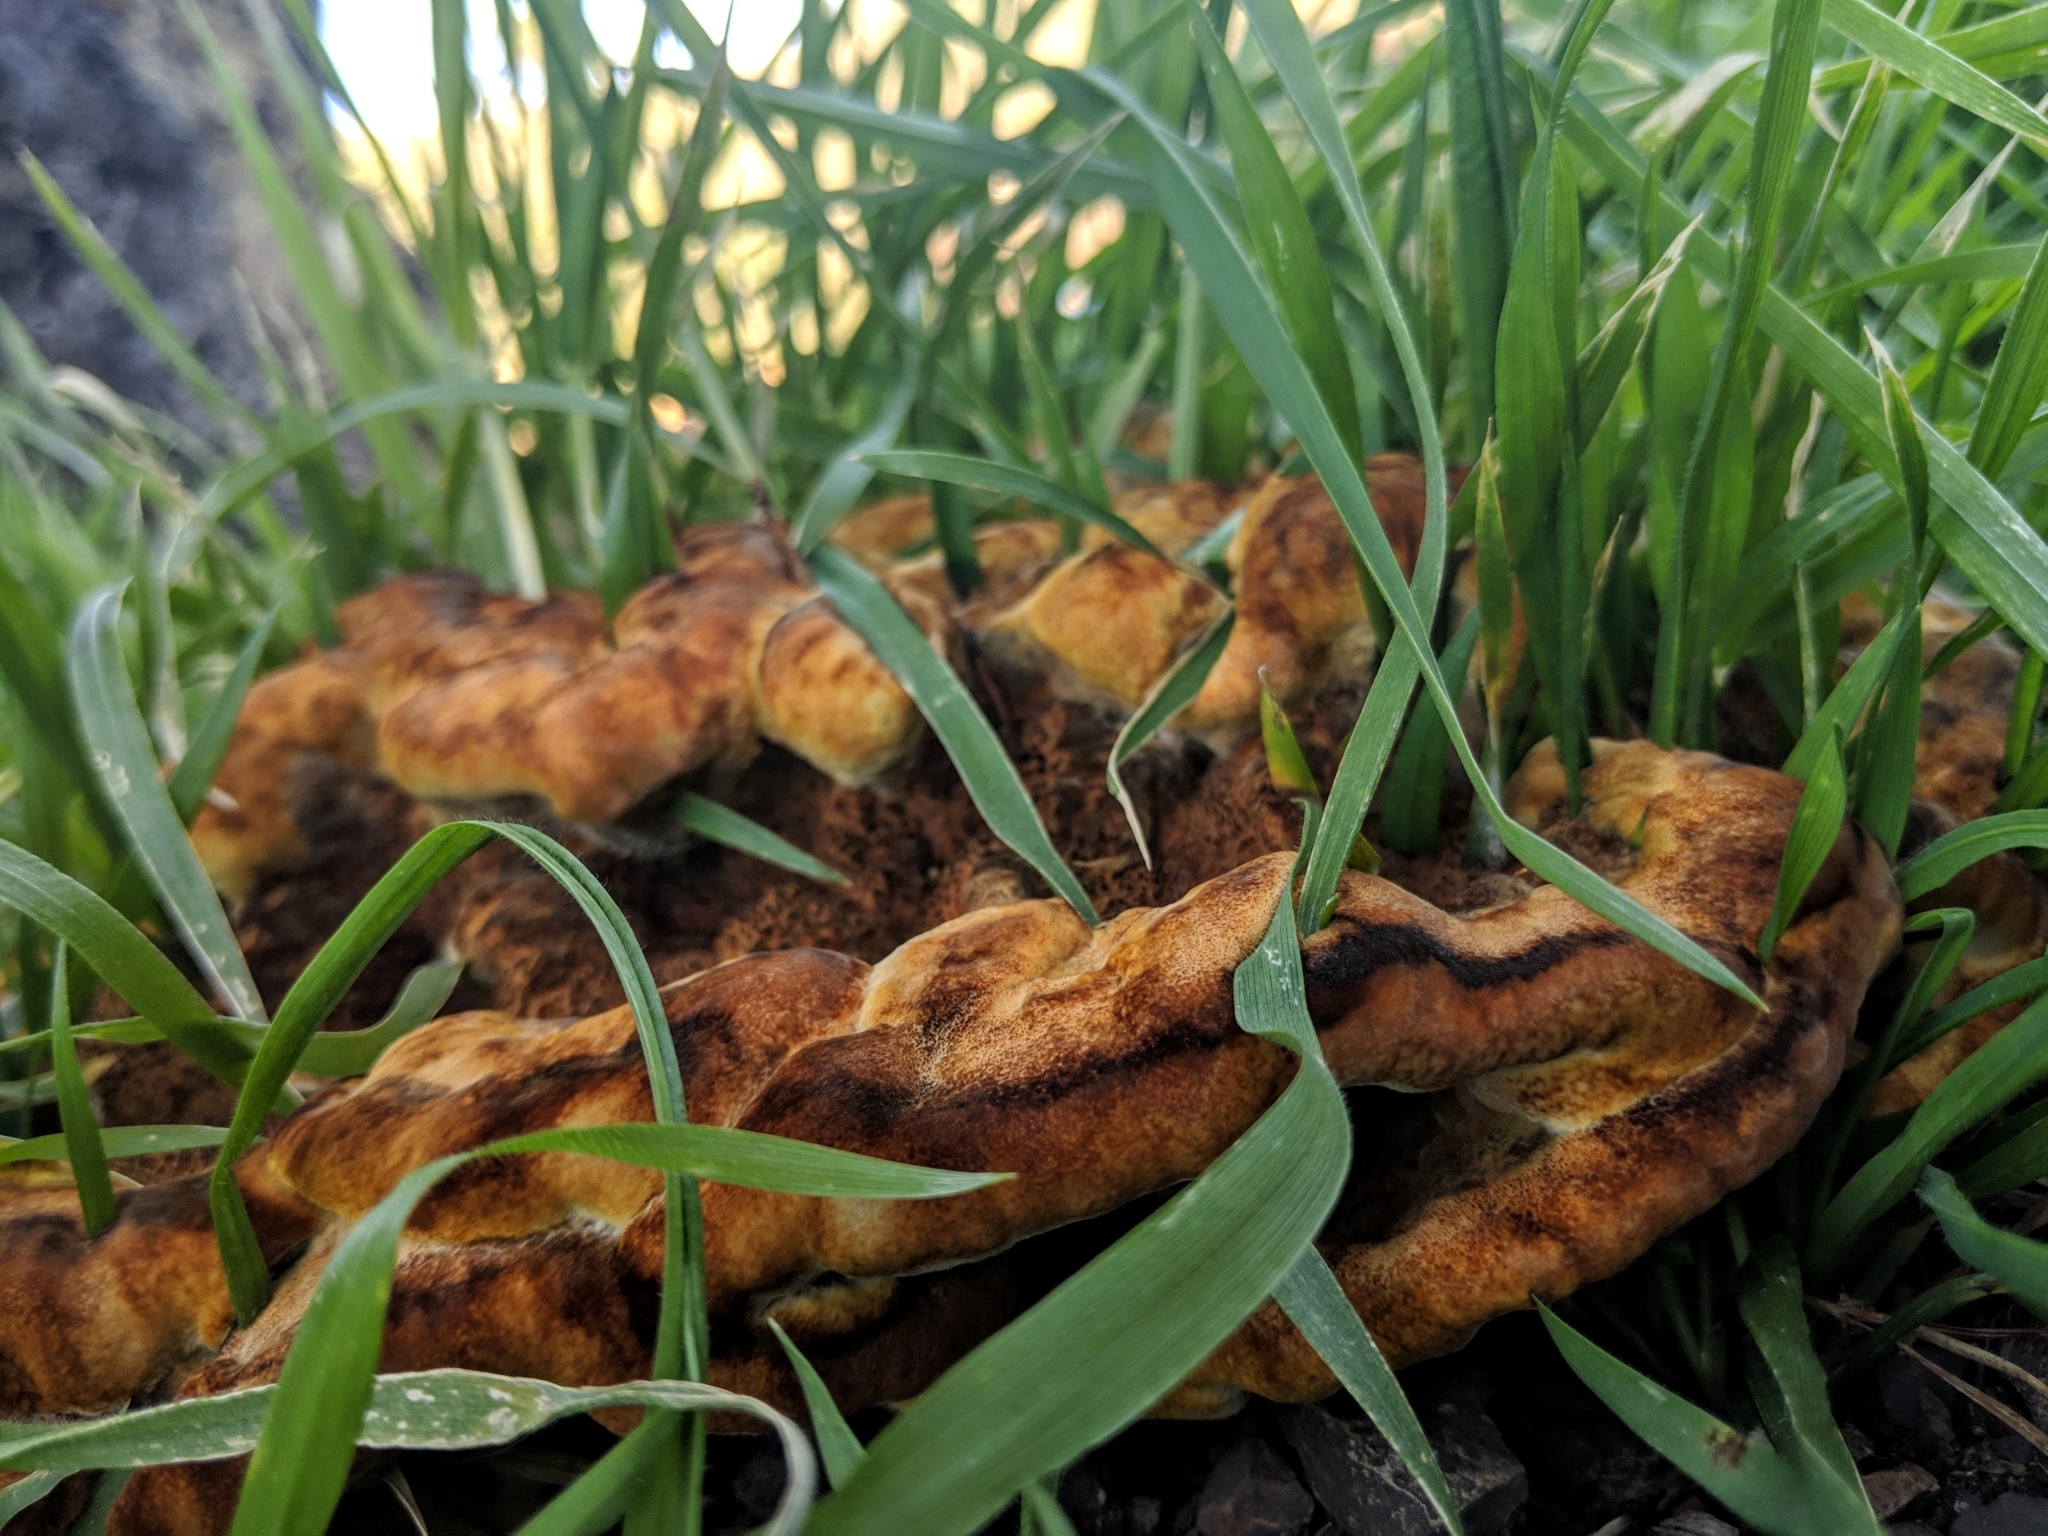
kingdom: Fungi
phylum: Basidiomycota
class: Agaricomycetes
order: Polyporales
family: Laetiporaceae
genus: Phaeolus
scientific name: Phaeolus schweinitzii
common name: Dyer's mazegill
